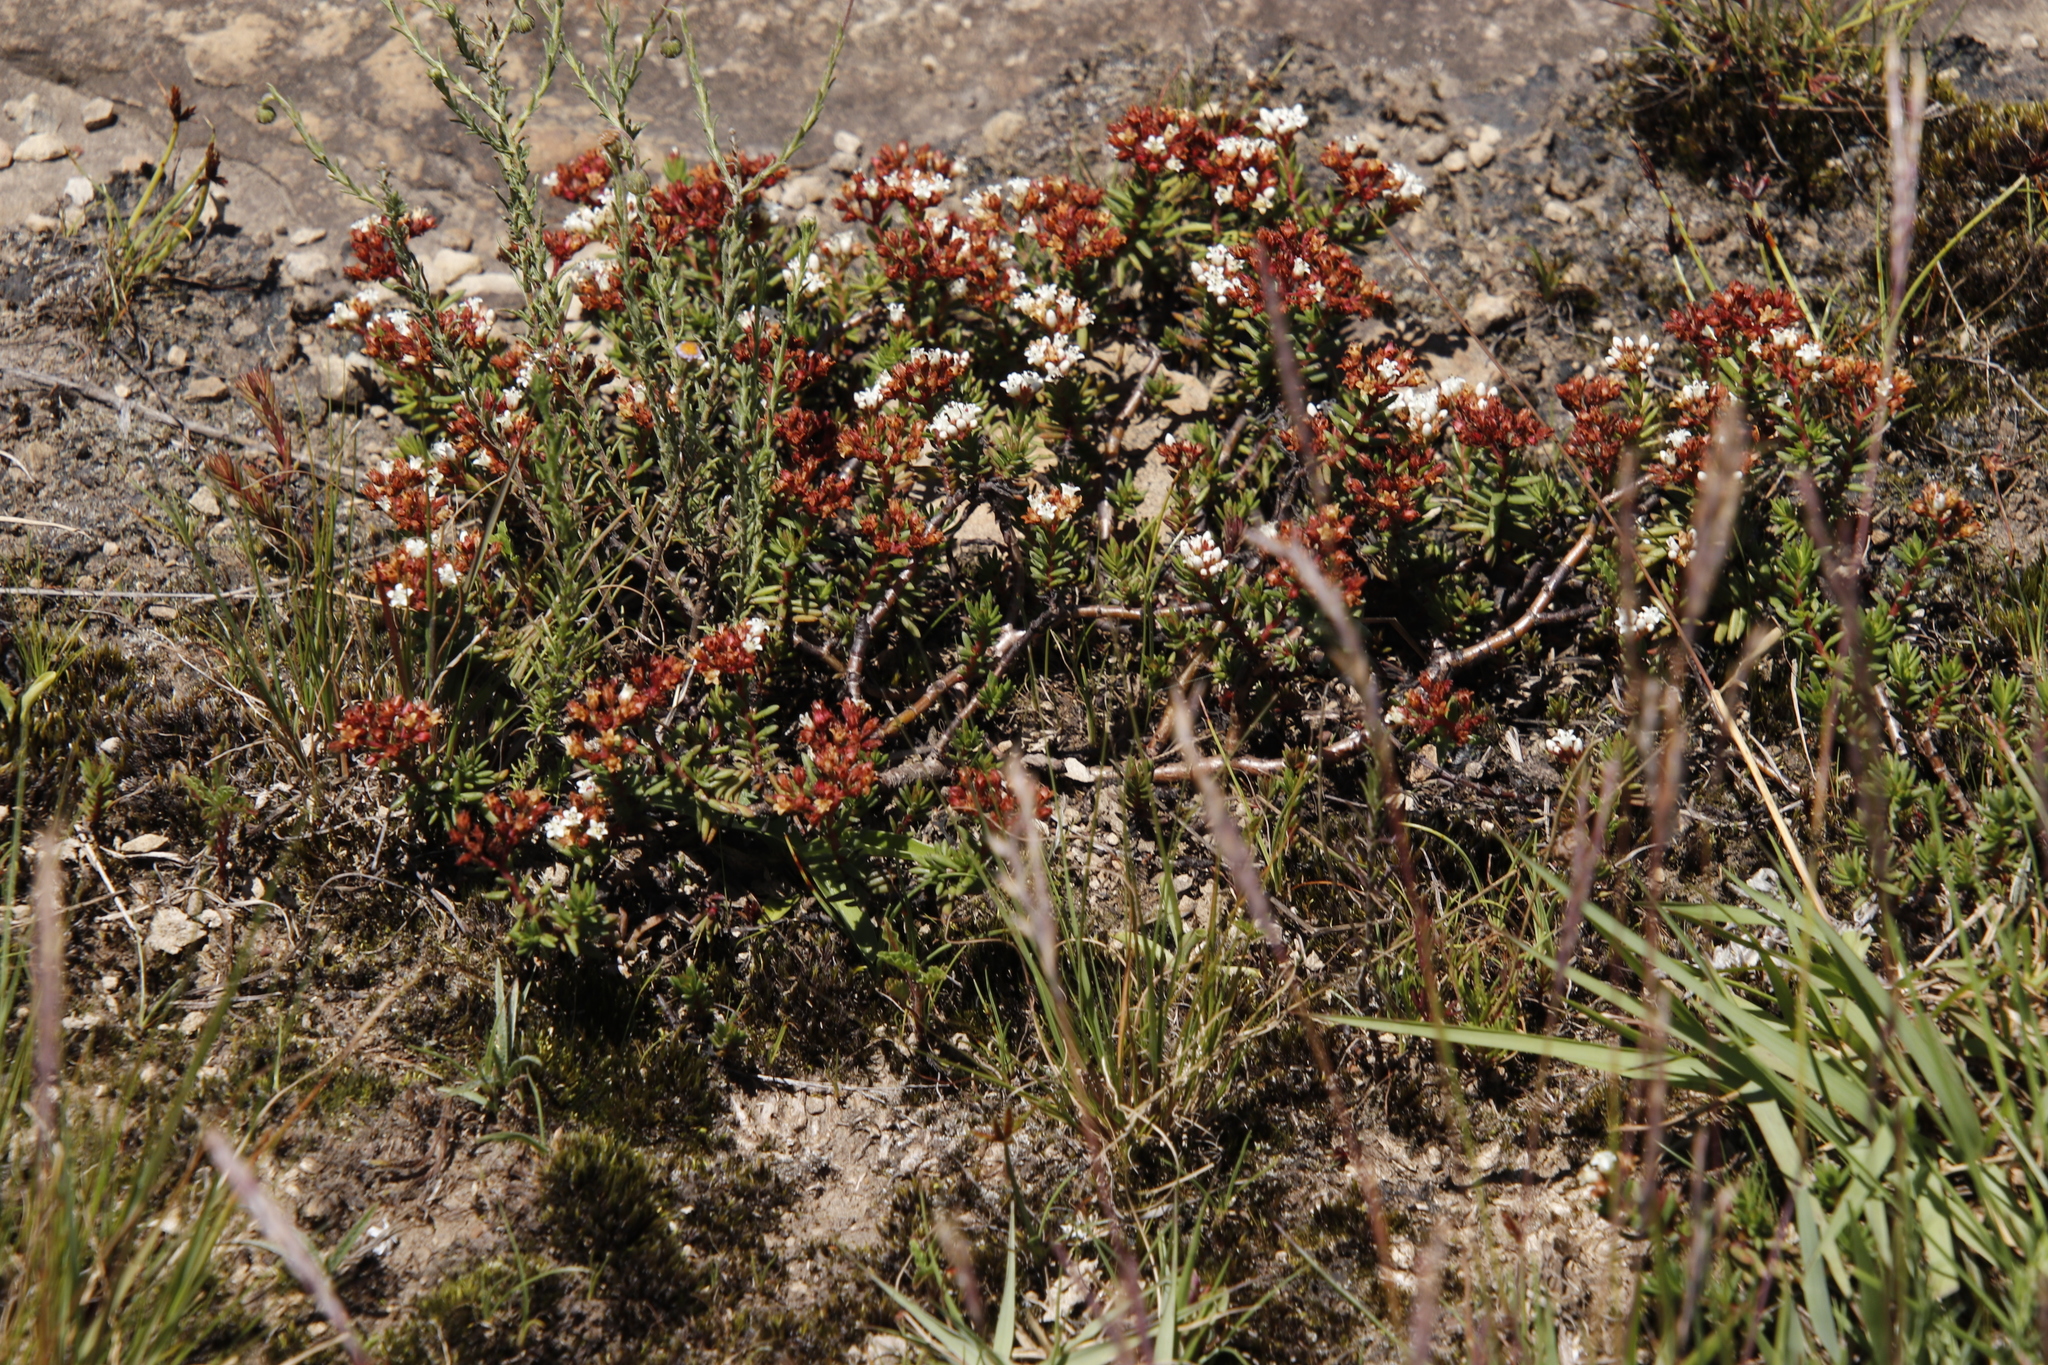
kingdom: Plantae
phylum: Tracheophyta
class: Magnoliopsida
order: Saxifragales
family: Crassulaceae
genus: Crassula
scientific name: Crassula dependens
